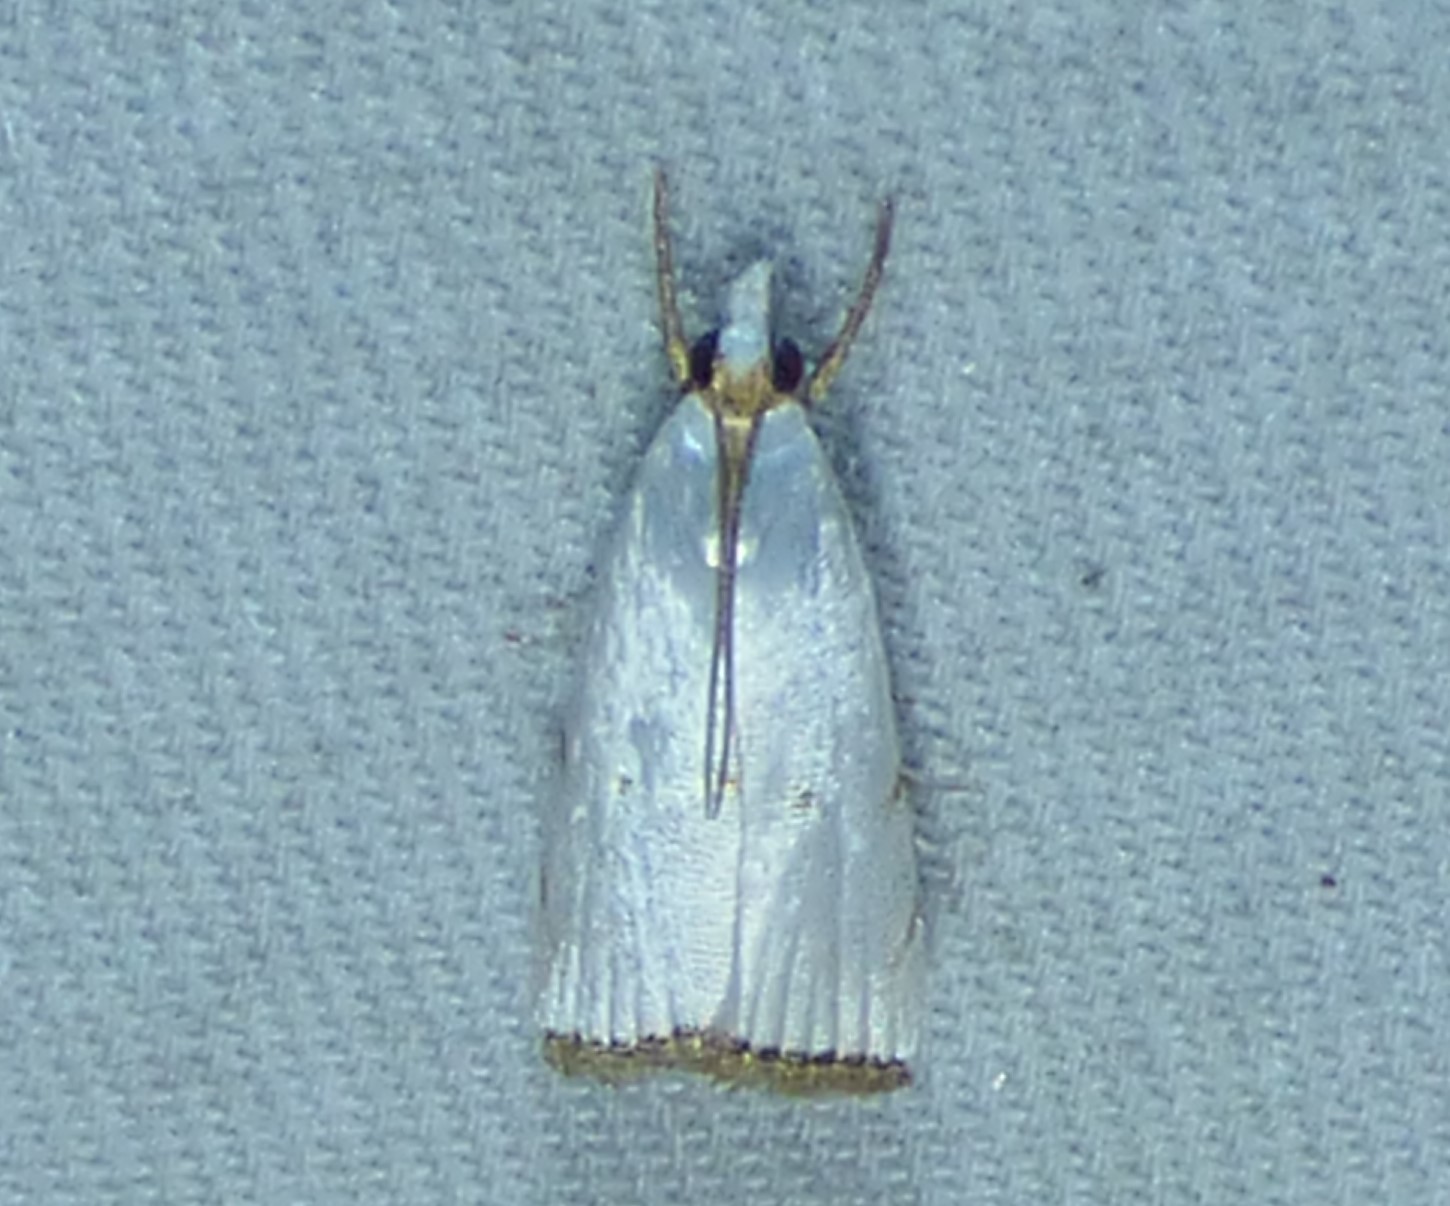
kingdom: Animalia
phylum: Arthropoda
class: Insecta
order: Lepidoptera
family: Crambidae
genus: Argyria
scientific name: Argyria pusillalis
